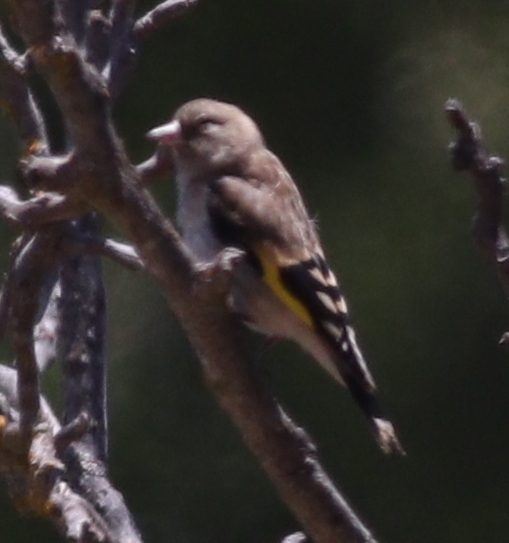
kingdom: Animalia
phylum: Chordata
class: Aves
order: Passeriformes
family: Fringillidae
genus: Carduelis
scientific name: Carduelis carduelis
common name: European goldfinch
